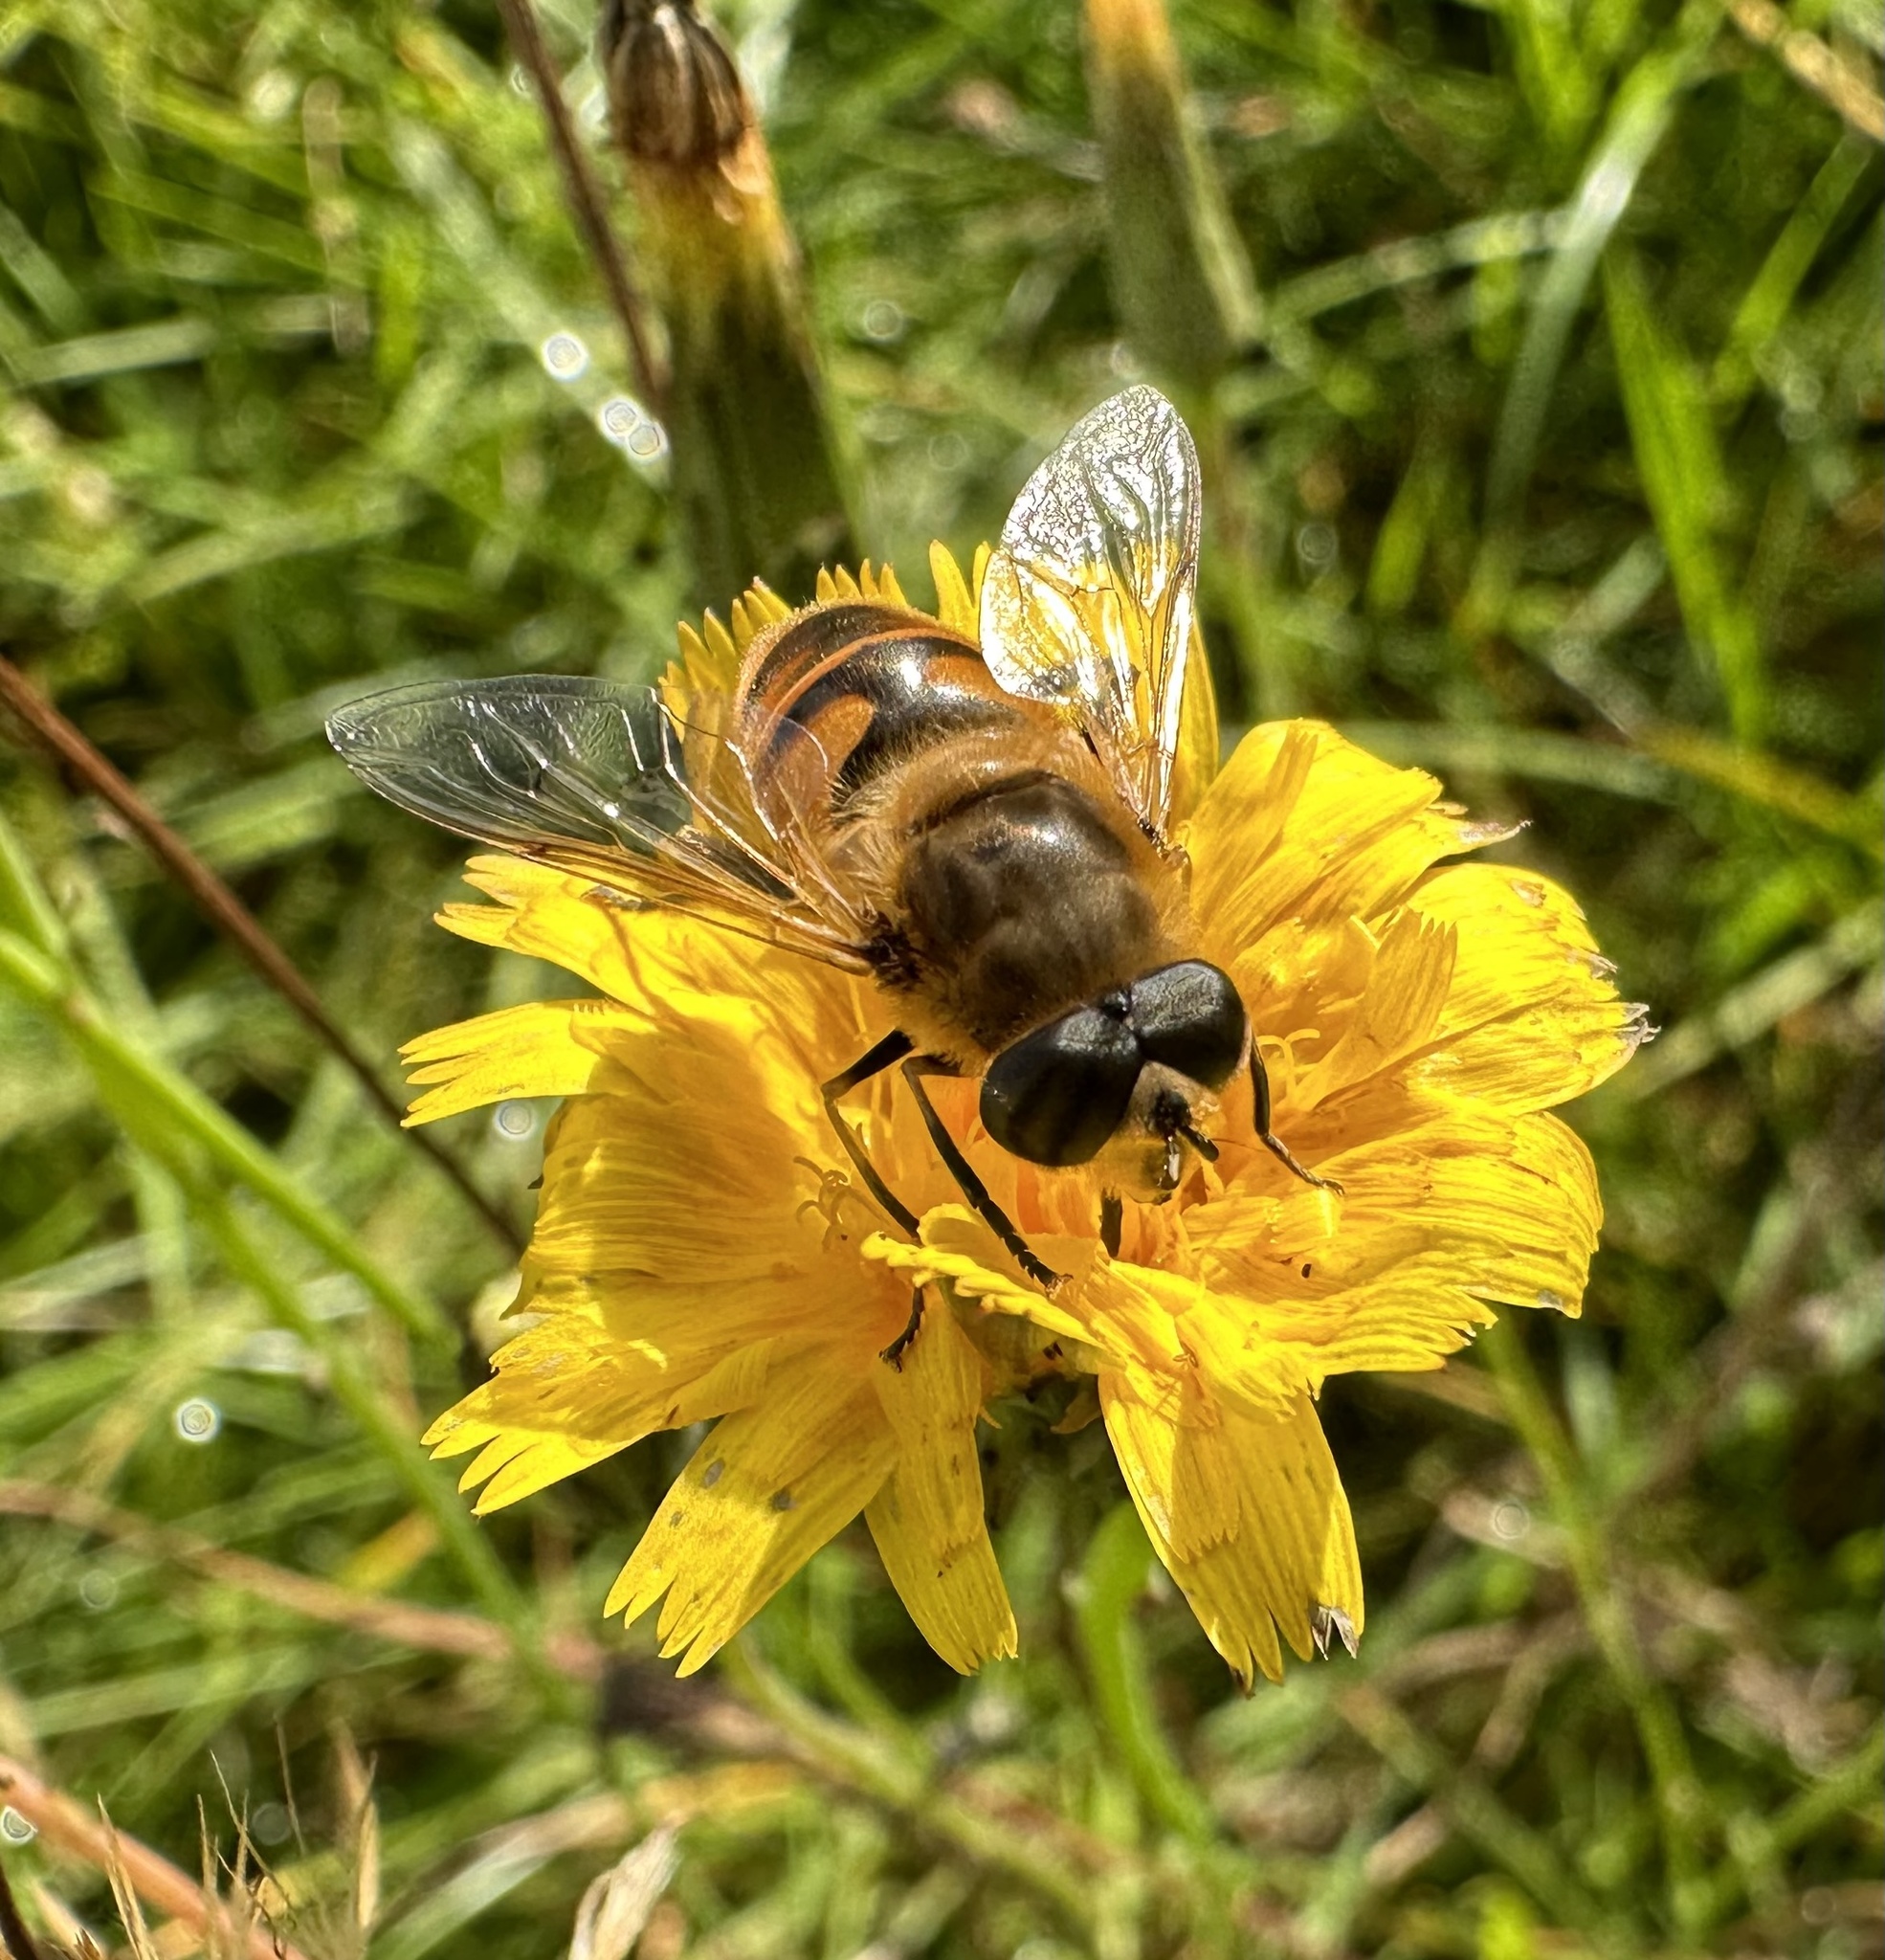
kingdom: Animalia
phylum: Arthropoda
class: Insecta
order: Diptera
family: Syrphidae
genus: Eristalis
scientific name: Eristalis tenax
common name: Drone fly
